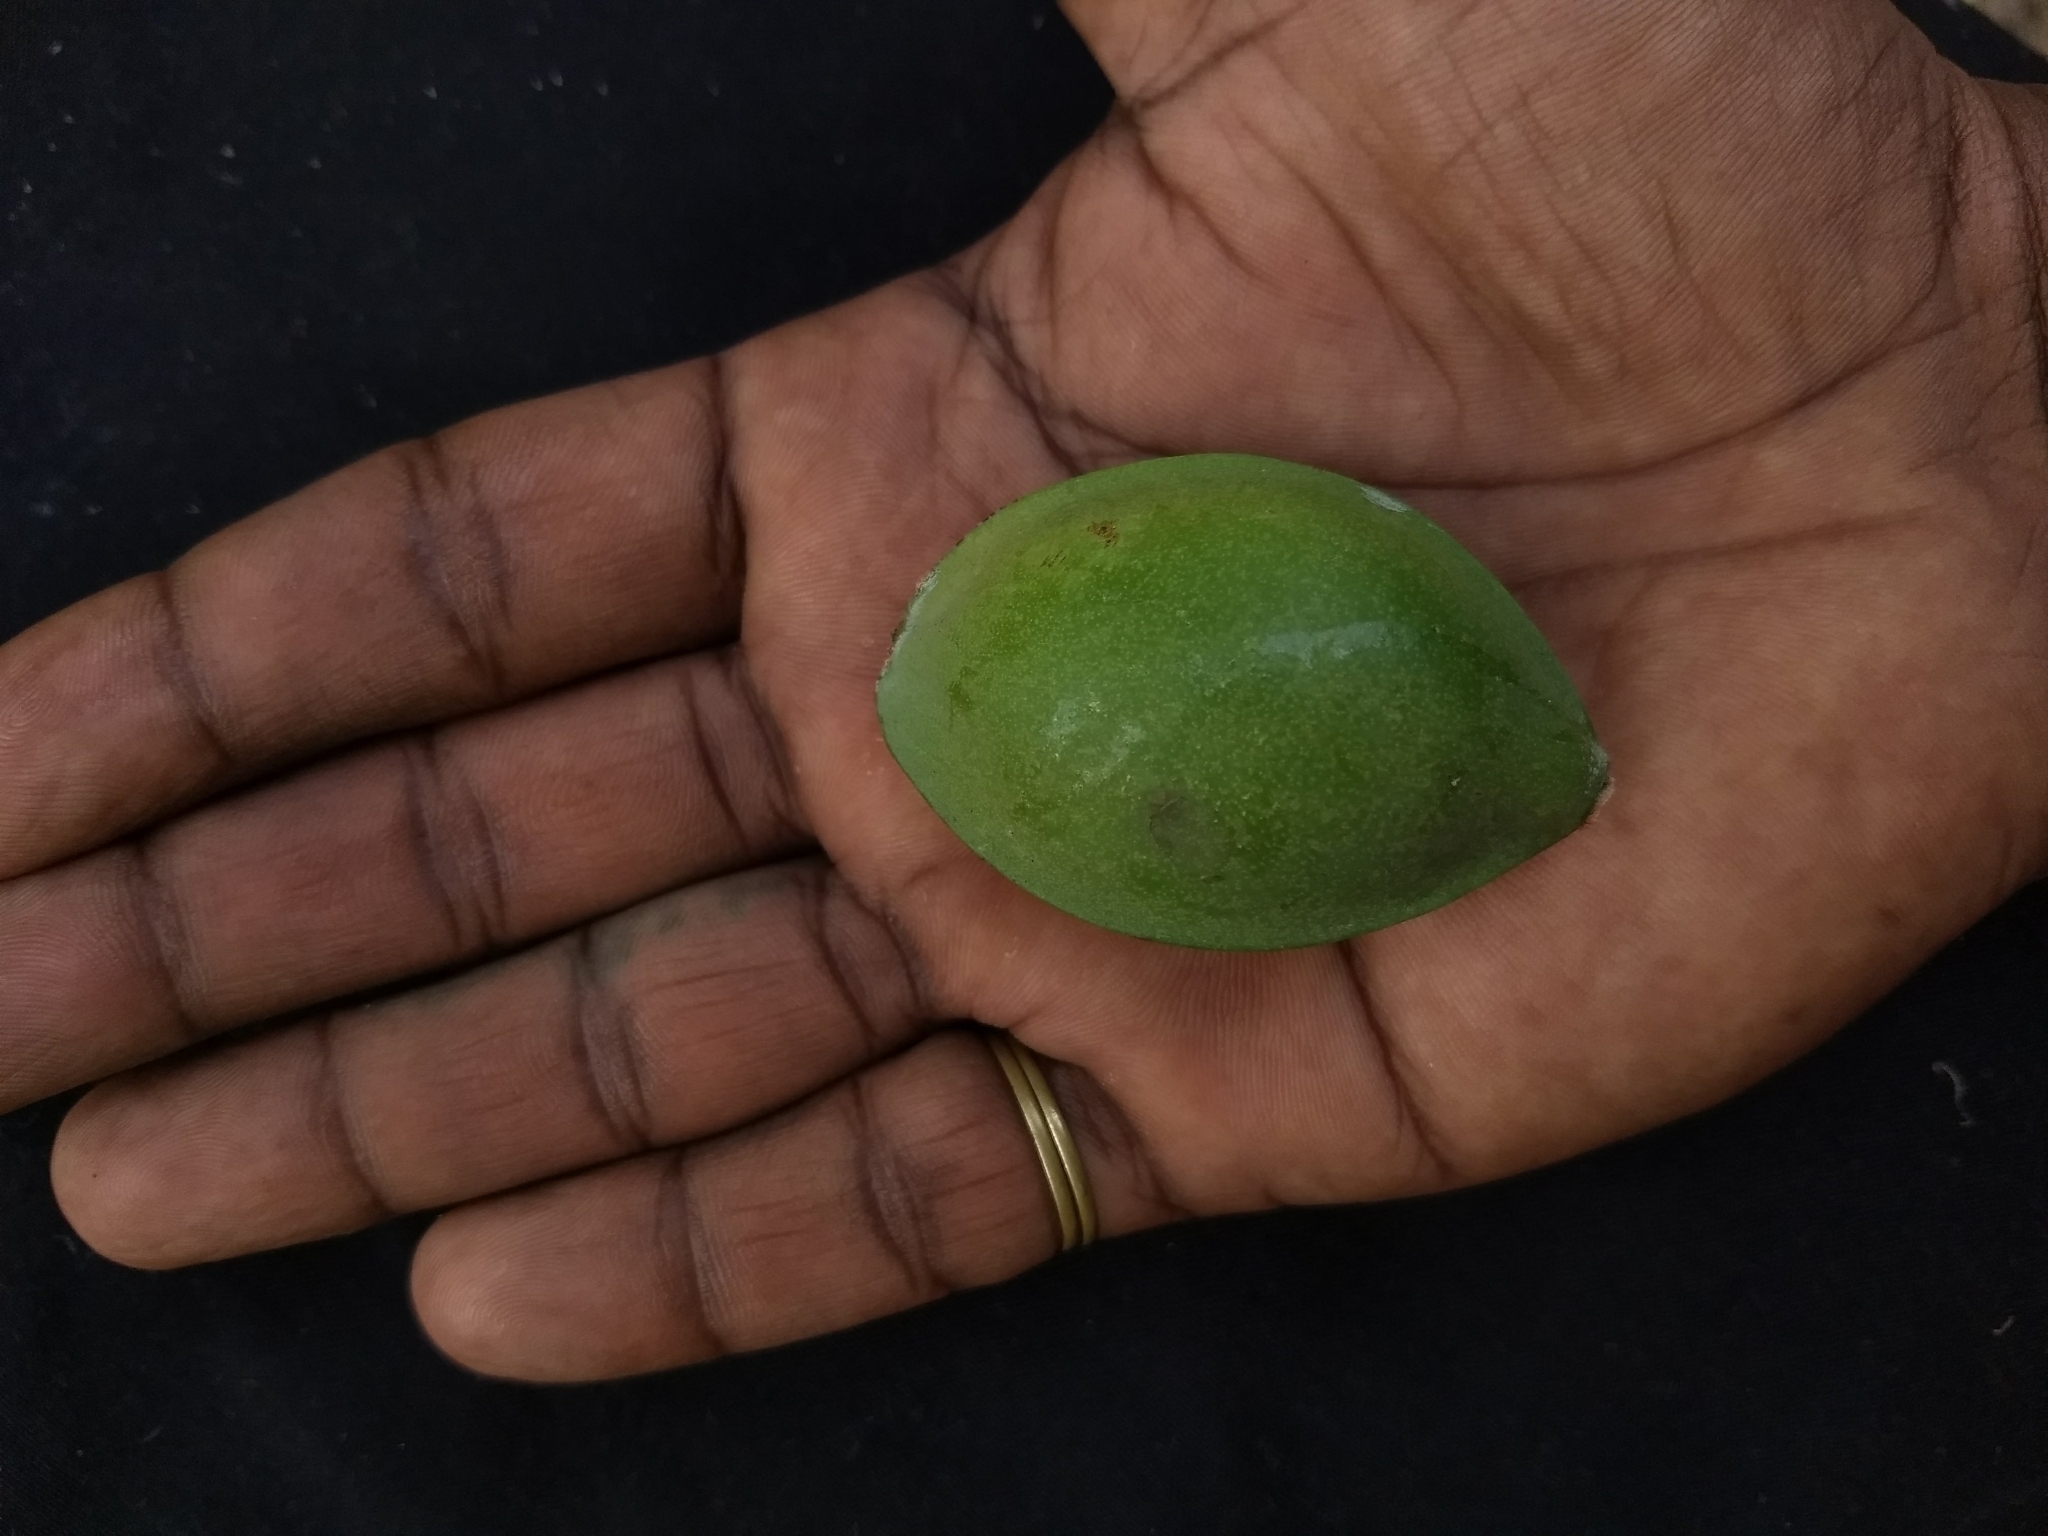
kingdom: Plantae
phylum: Tracheophyta
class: Magnoliopsida
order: Myrtales
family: Combretaceae
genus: Terminalia
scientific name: Terminalia catappa
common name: Tropical almond
